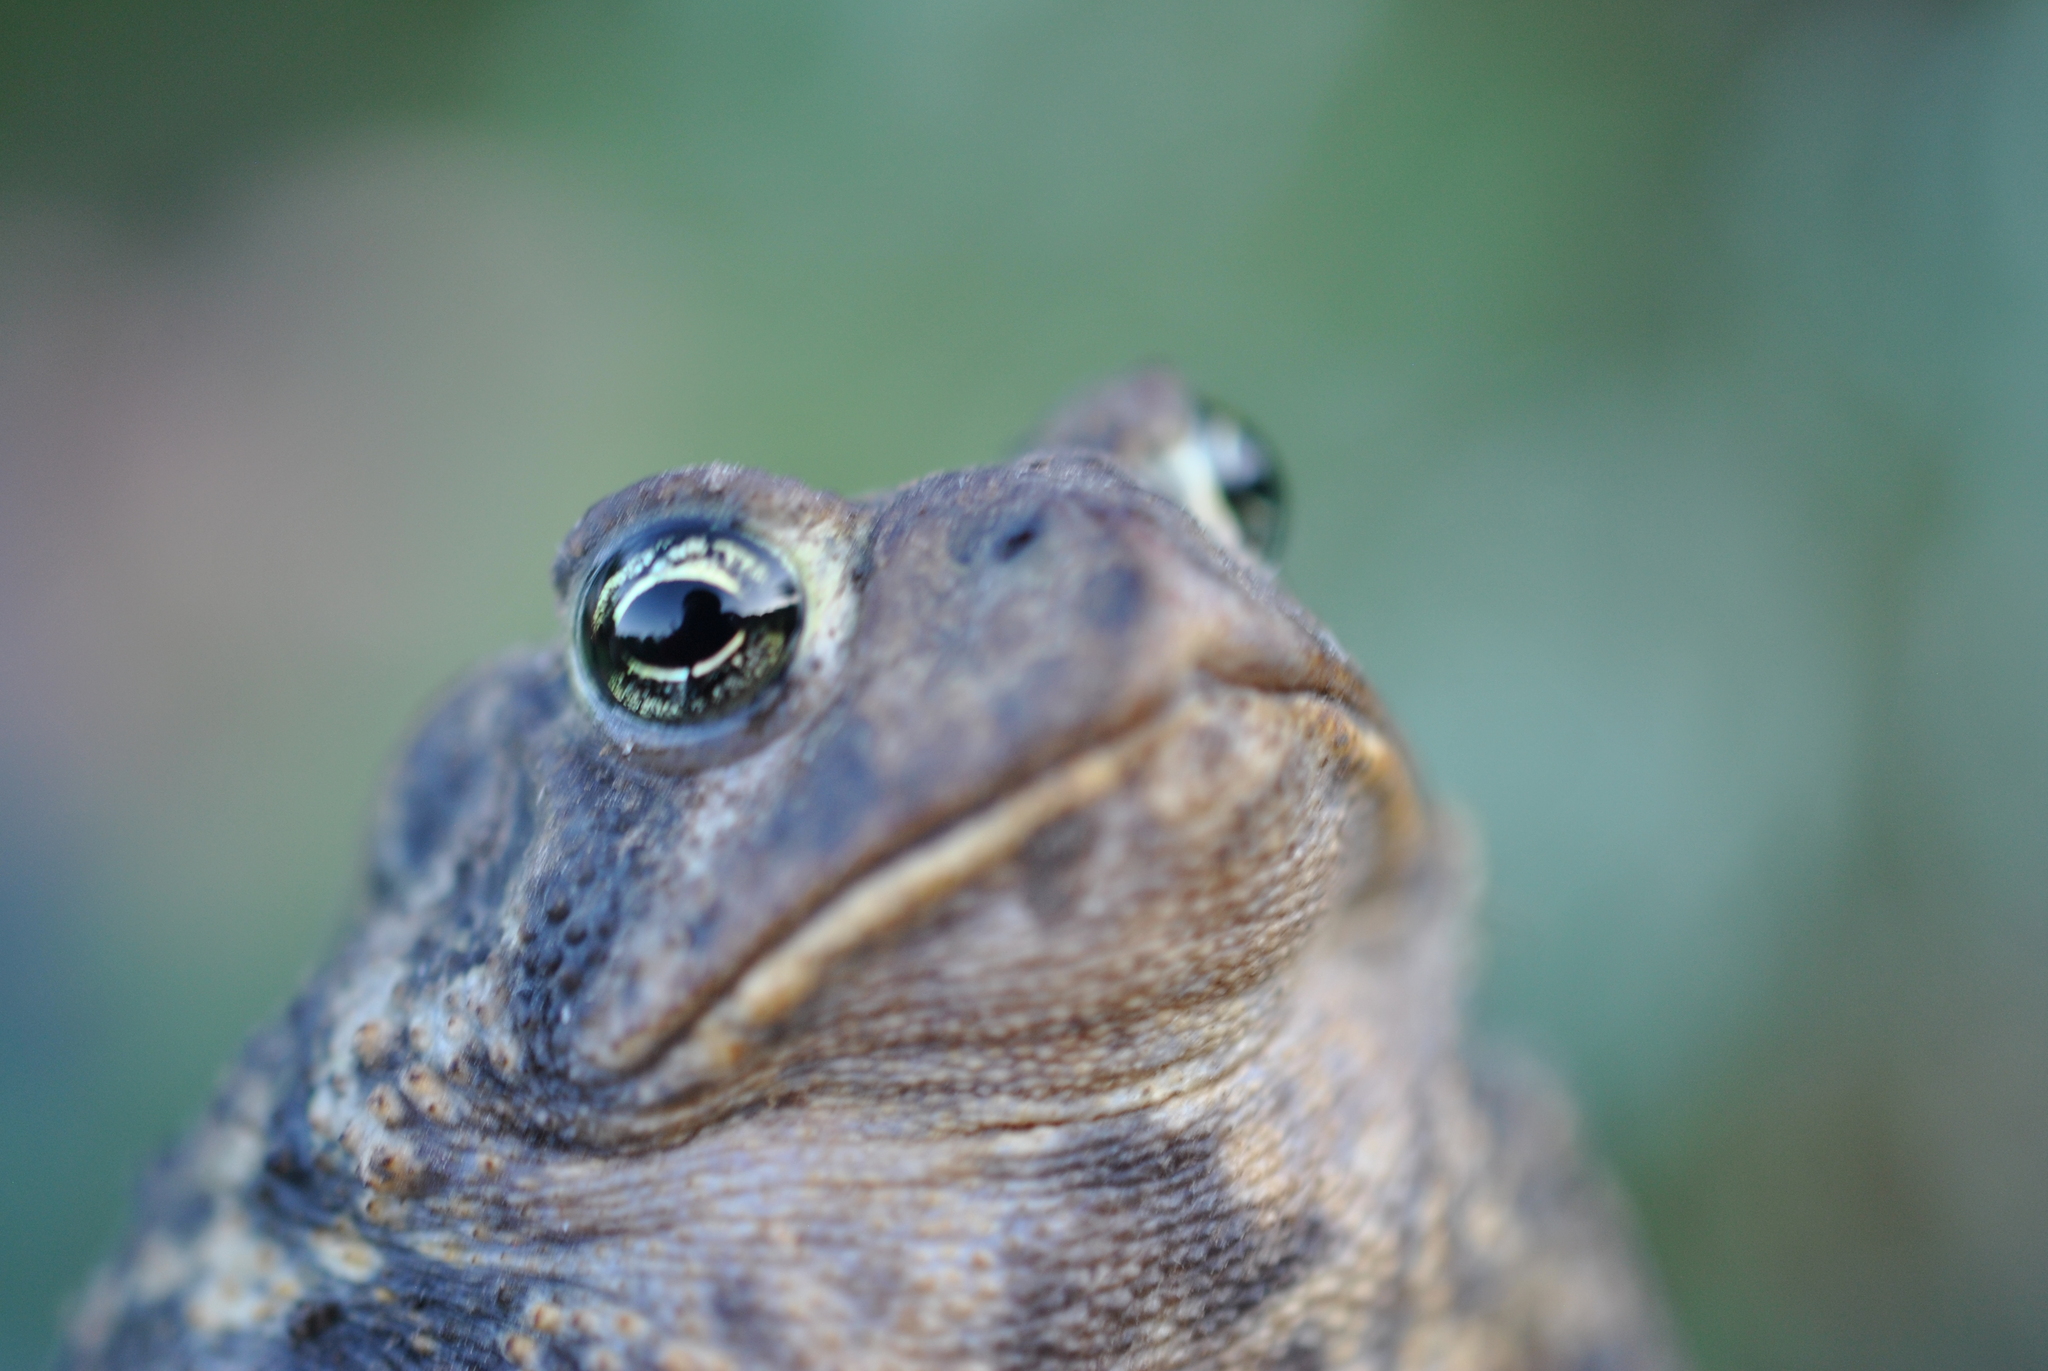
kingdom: Animalia
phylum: Chordata
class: Amphibia
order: Anura
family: Bufonidae
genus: Anaxyrus
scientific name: Anaxyrus americanus
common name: American toad
